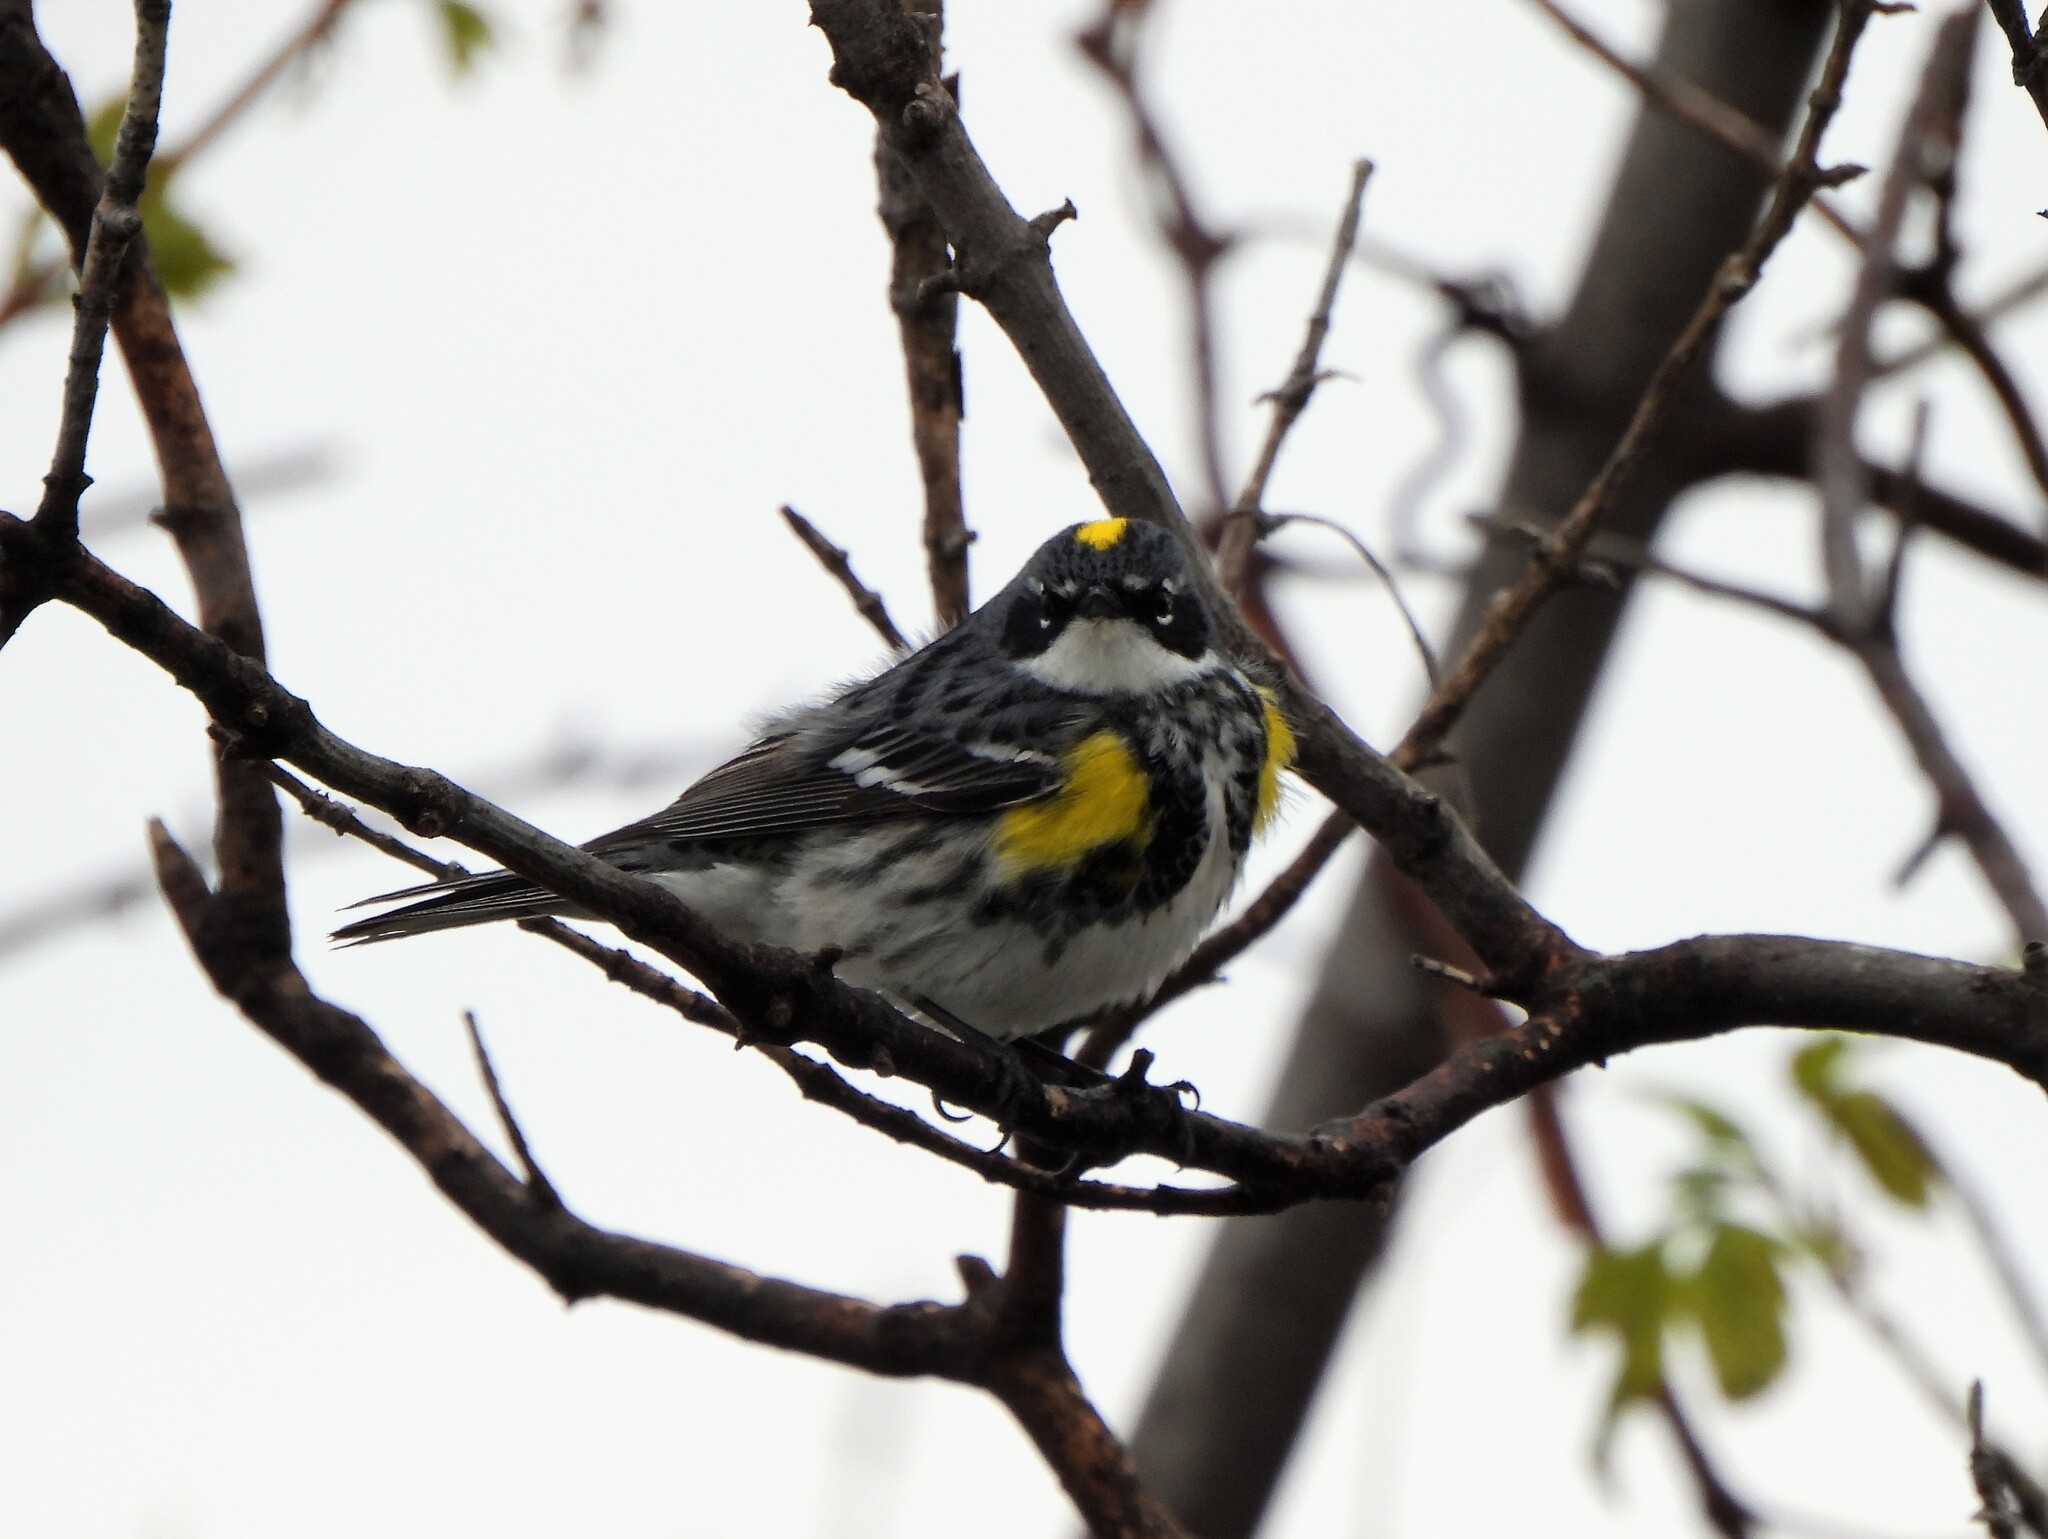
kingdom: Animalia
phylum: Chordata
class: Aves
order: Passeriformes
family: Parulidae
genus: Setophaga
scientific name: Setophaga coronata
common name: Myrtle warbler
